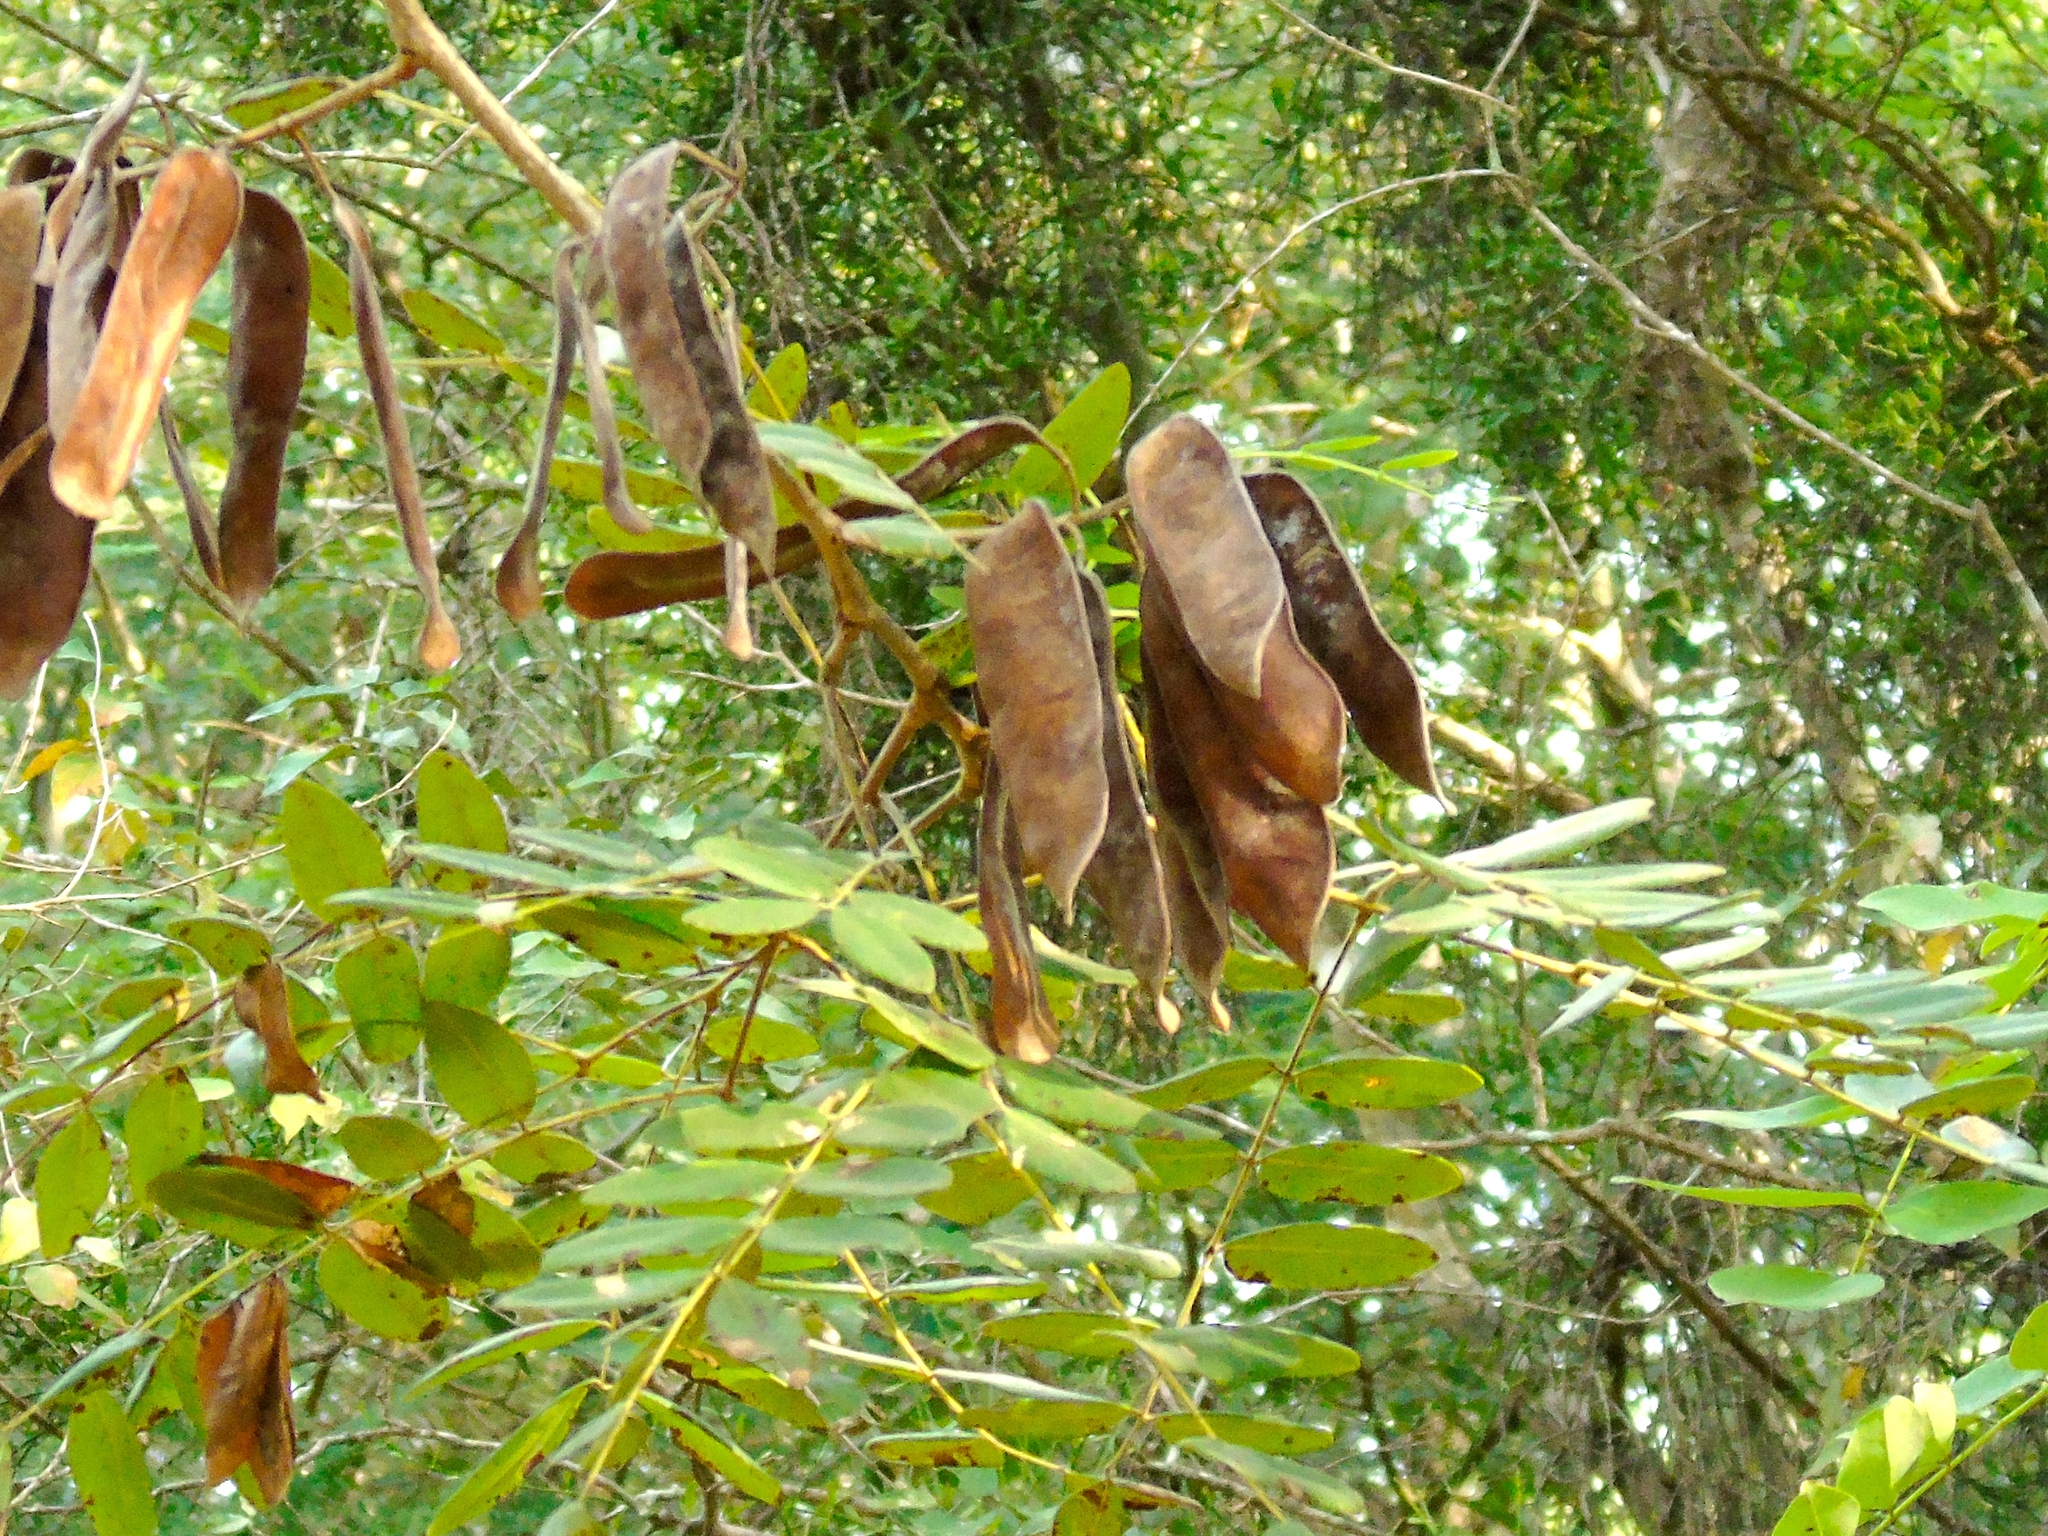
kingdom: Plantae
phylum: Tracheophyta
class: Magnoliopsida
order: Fabales
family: Fabaceae
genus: Coulteria
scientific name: Coulteria platyloba
